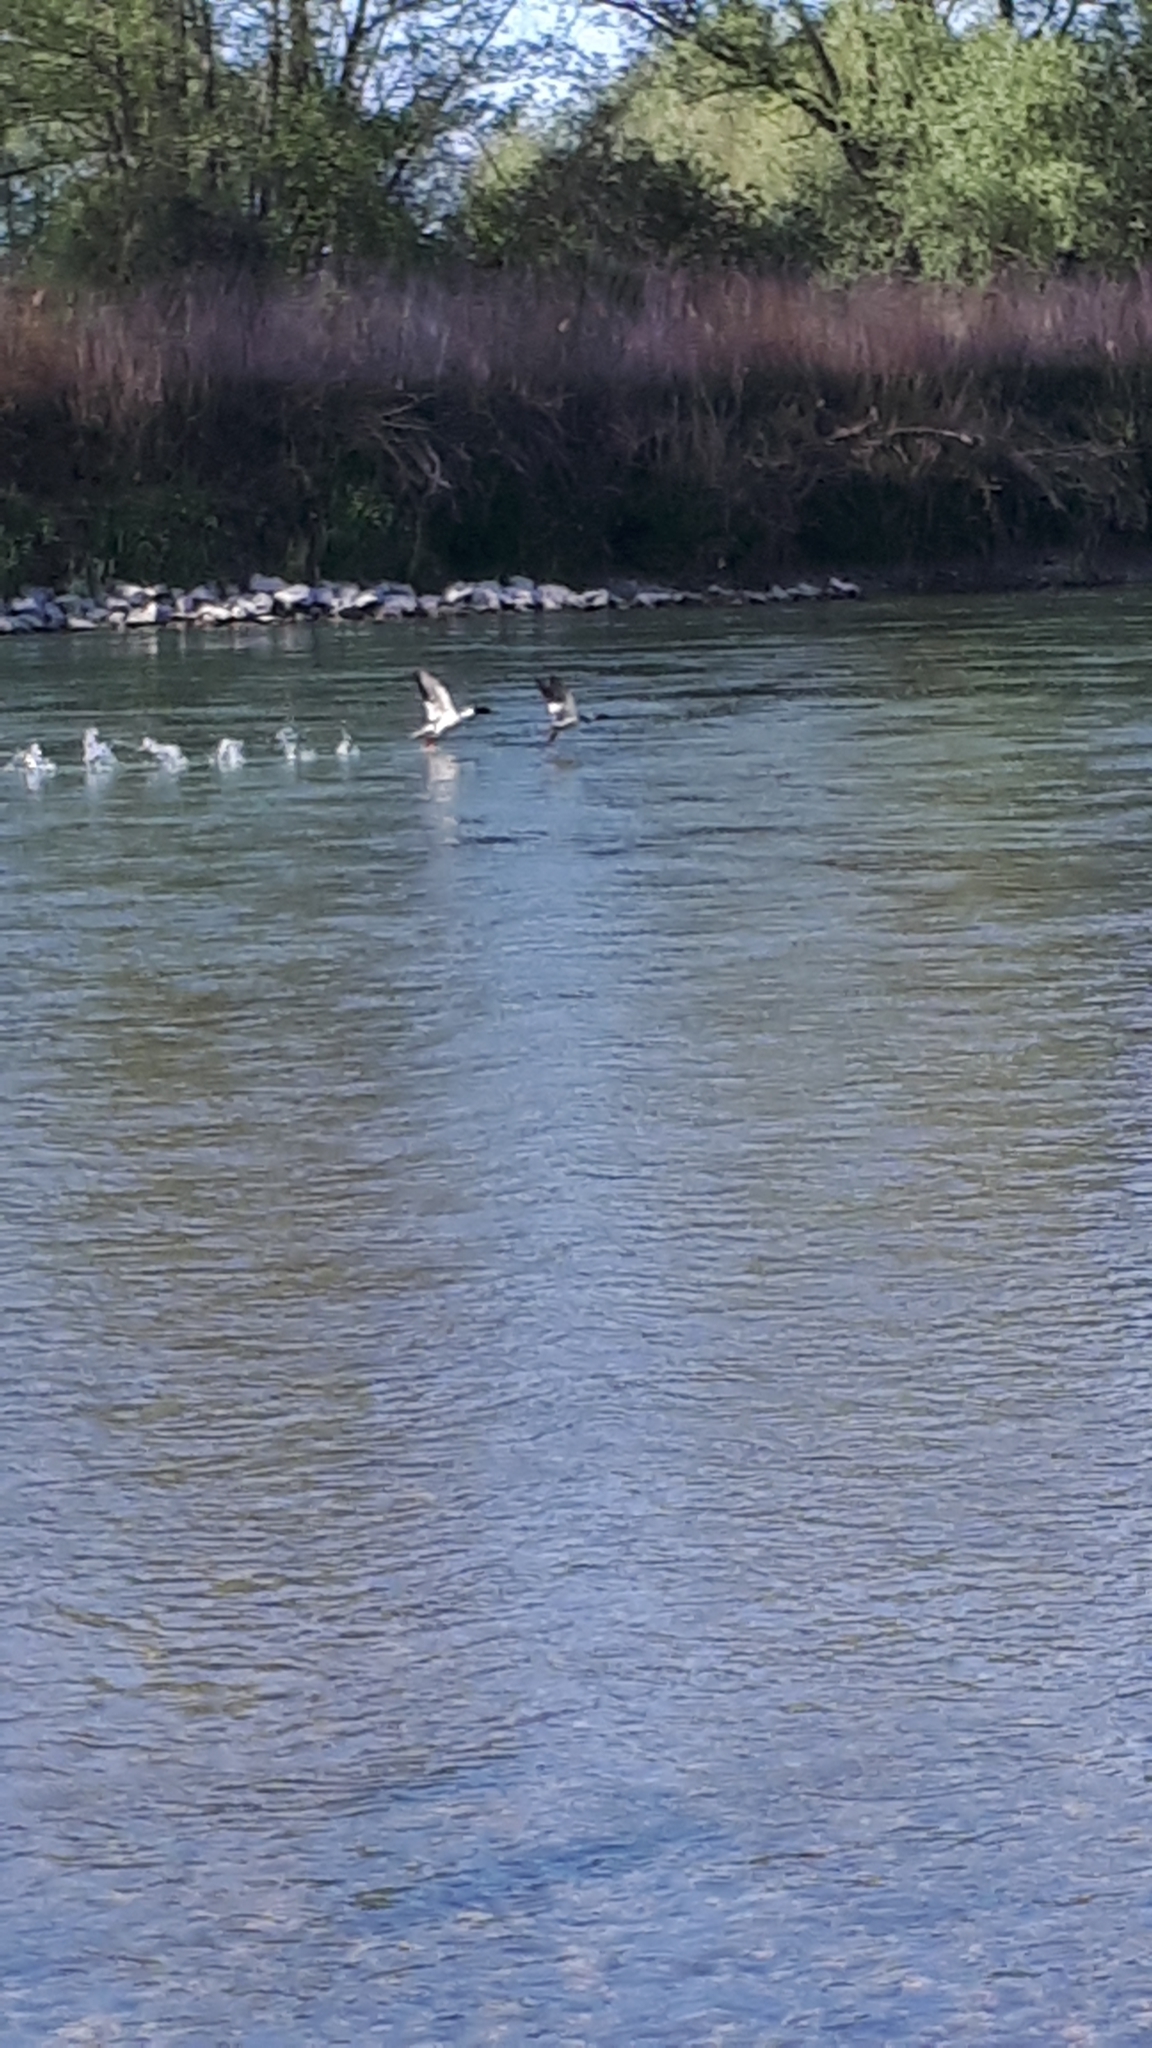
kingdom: Animalia
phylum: Chordata
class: Aves
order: Anseriformes
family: Anatidae
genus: Mergus
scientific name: Mergus merganser
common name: Common merganser
